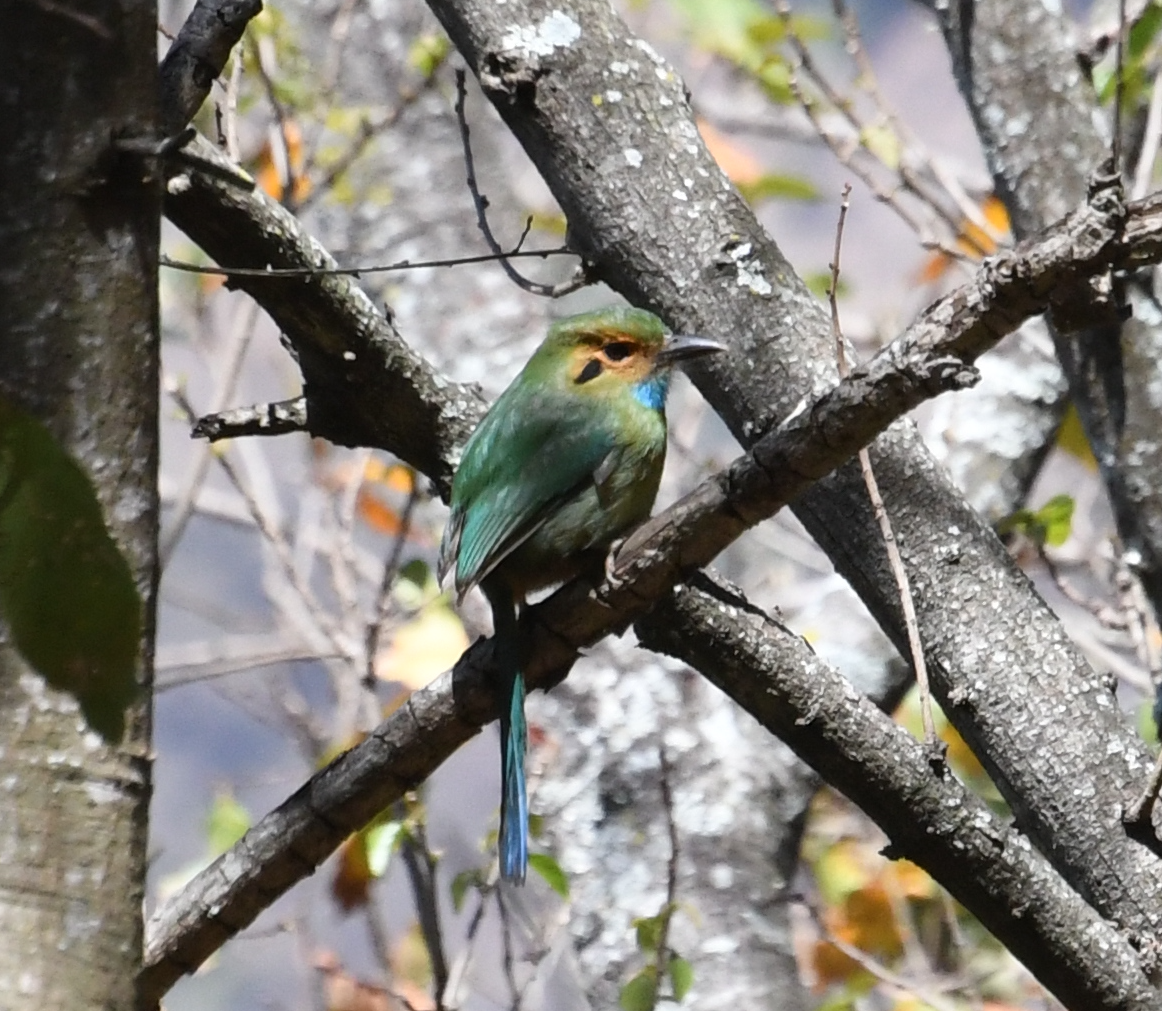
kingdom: Animalia
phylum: Chordata
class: Aves
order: Coraciiformes
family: Momotidae
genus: Aspatha
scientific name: Aspatha gularis
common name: Blue-throated motmot
